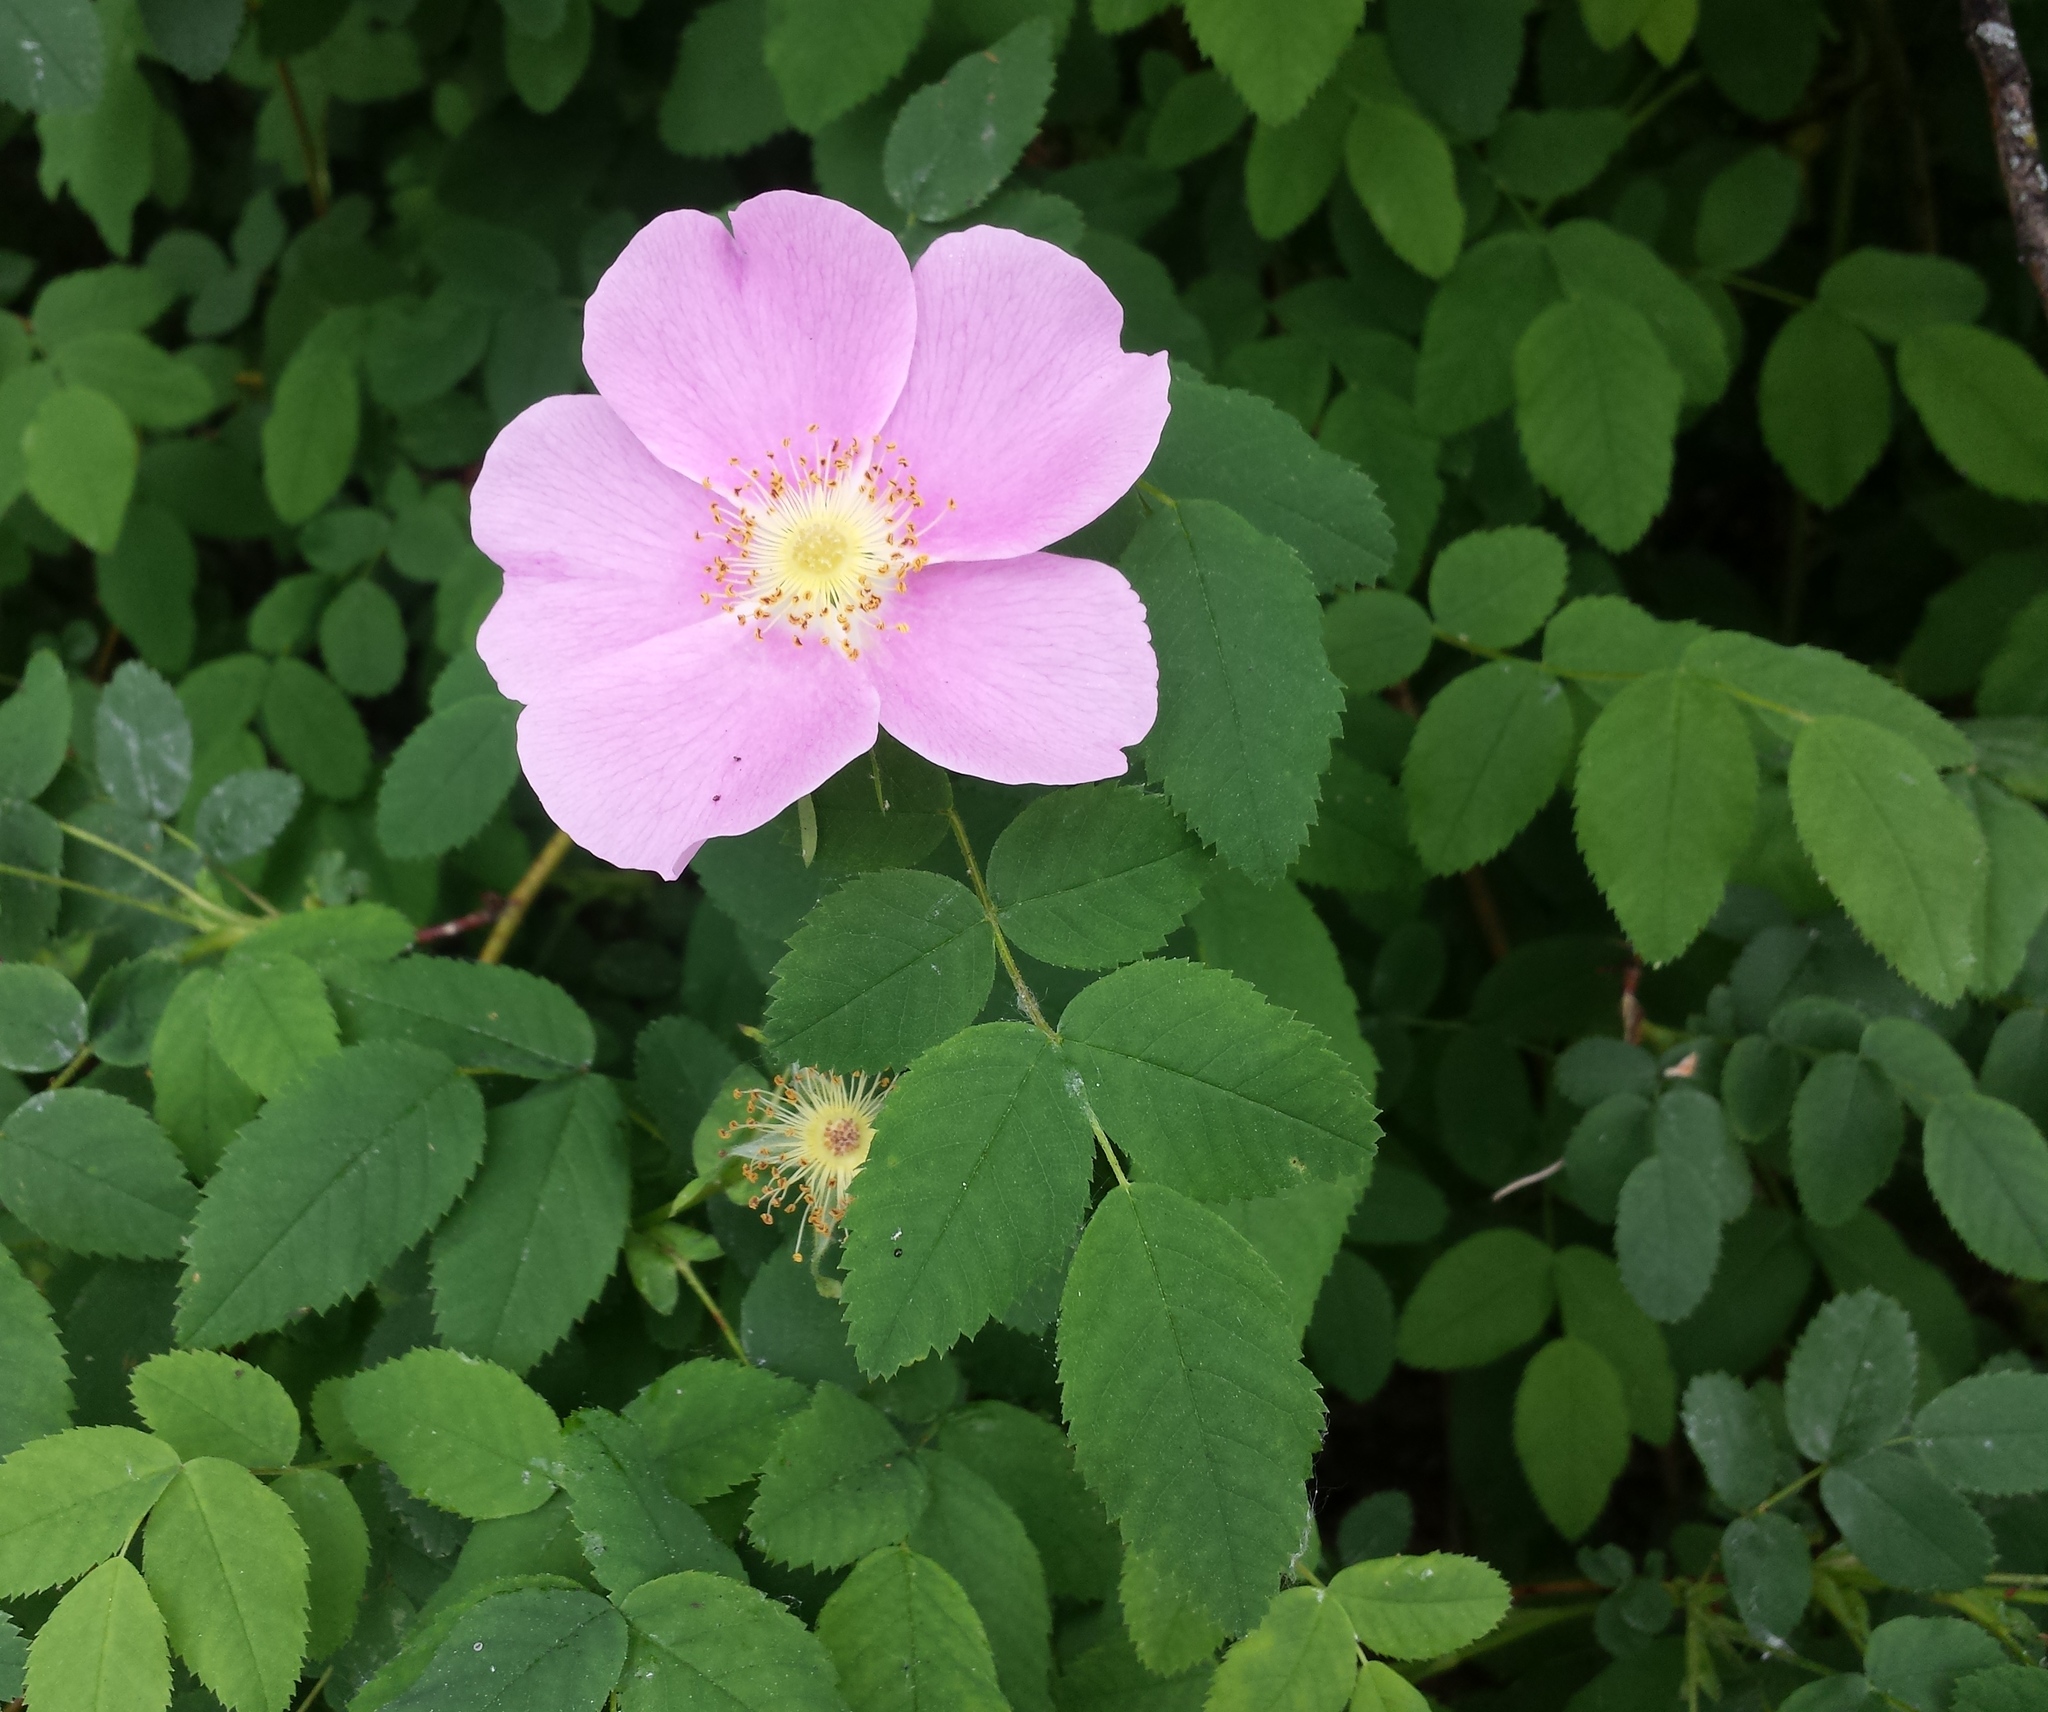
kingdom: Plantae
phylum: Tracheophyta
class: Magnoliopsida
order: Rosales
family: Rosaceae
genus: Rosa
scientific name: Rosa nutkana
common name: Nootka rose
